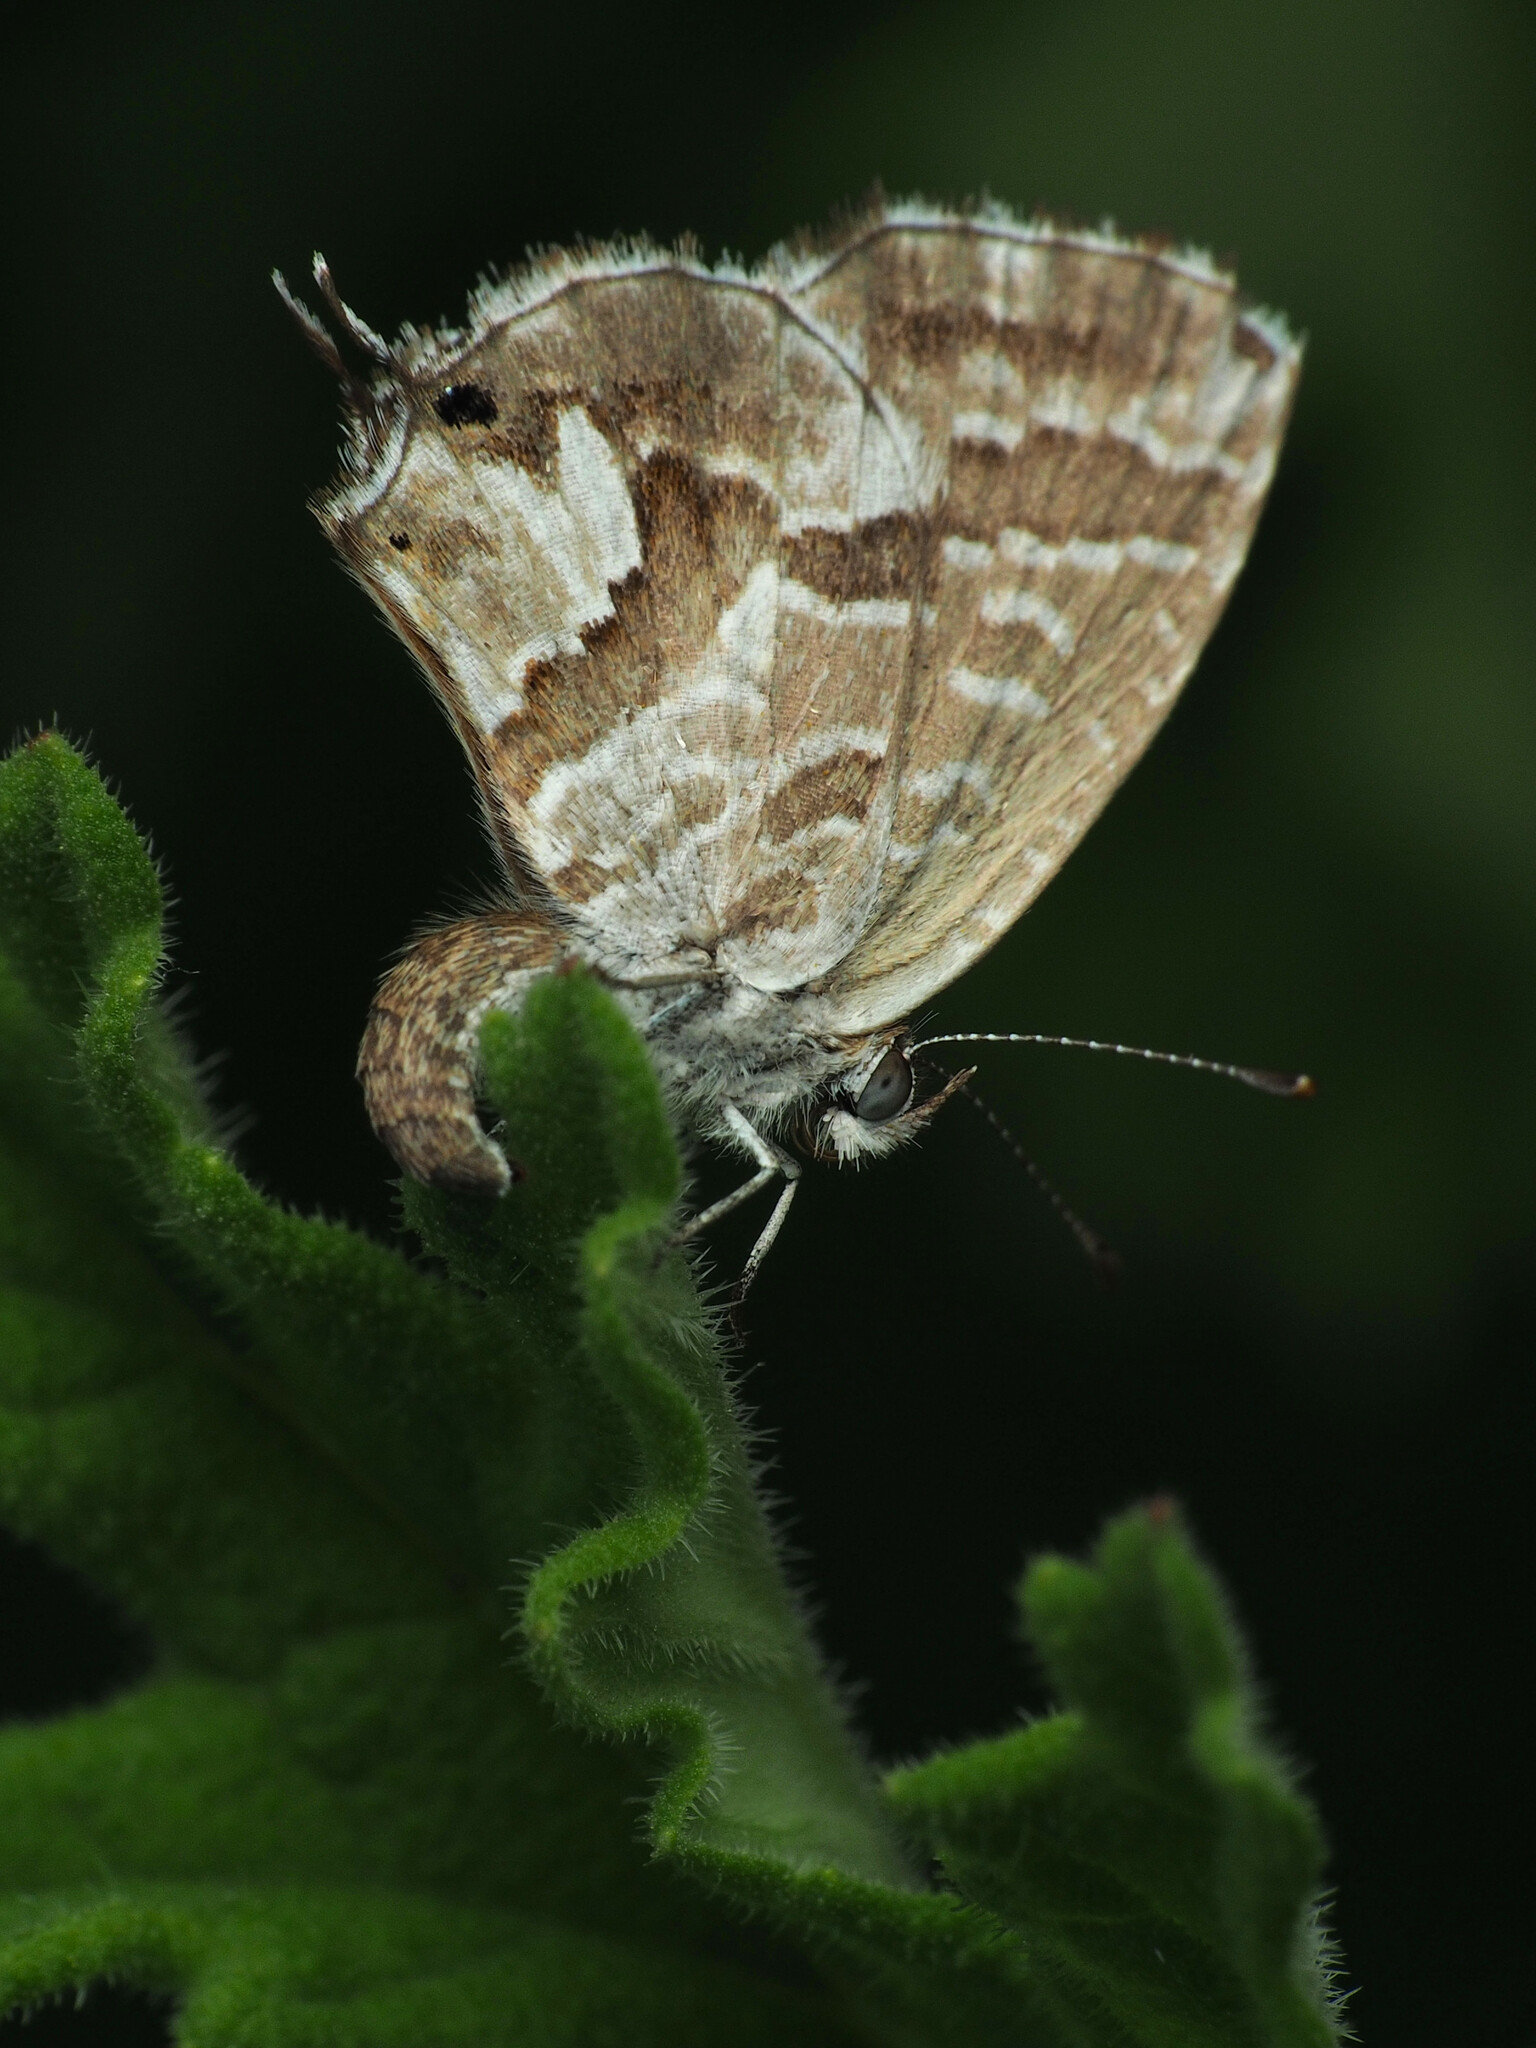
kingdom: Animalia
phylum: Arthropoda
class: Insecta
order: Lepidoptera
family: Lycaenidae
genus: Cacyreus
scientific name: Cacyreus marshalli
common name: Geranium bronze
